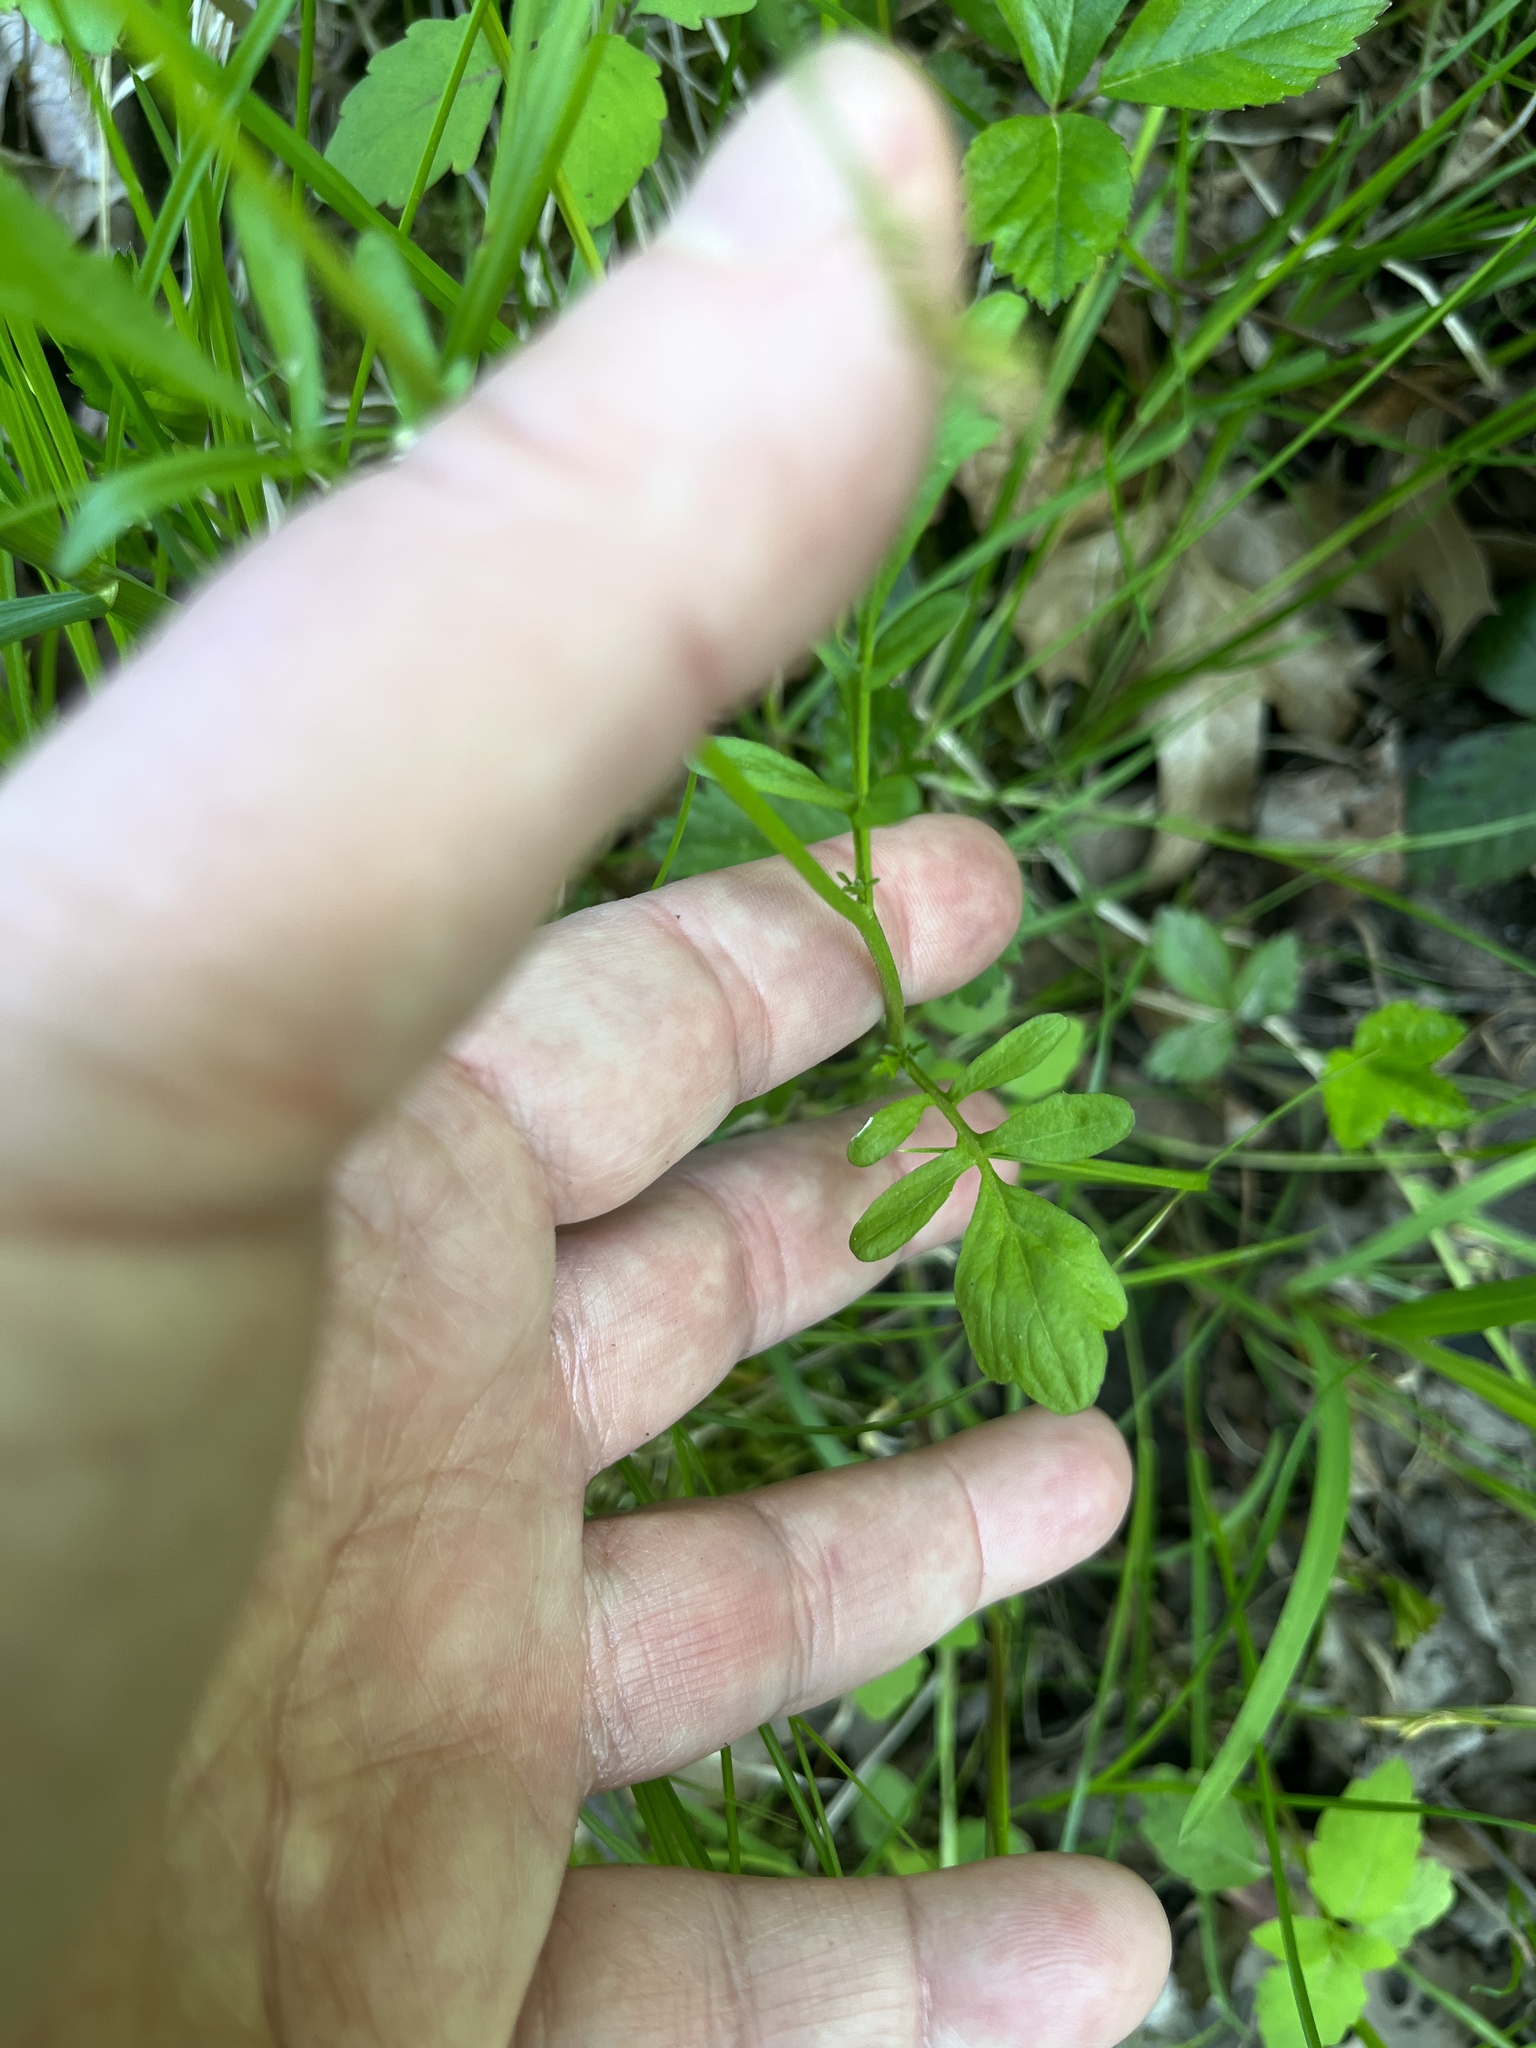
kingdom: Plantae
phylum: Tracheophyta
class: Magnoliopsida
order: Brassicales
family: Brassicaceae
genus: Cardamine
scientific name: Cardamine pensylvanica
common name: Pennsylvania bittercress
